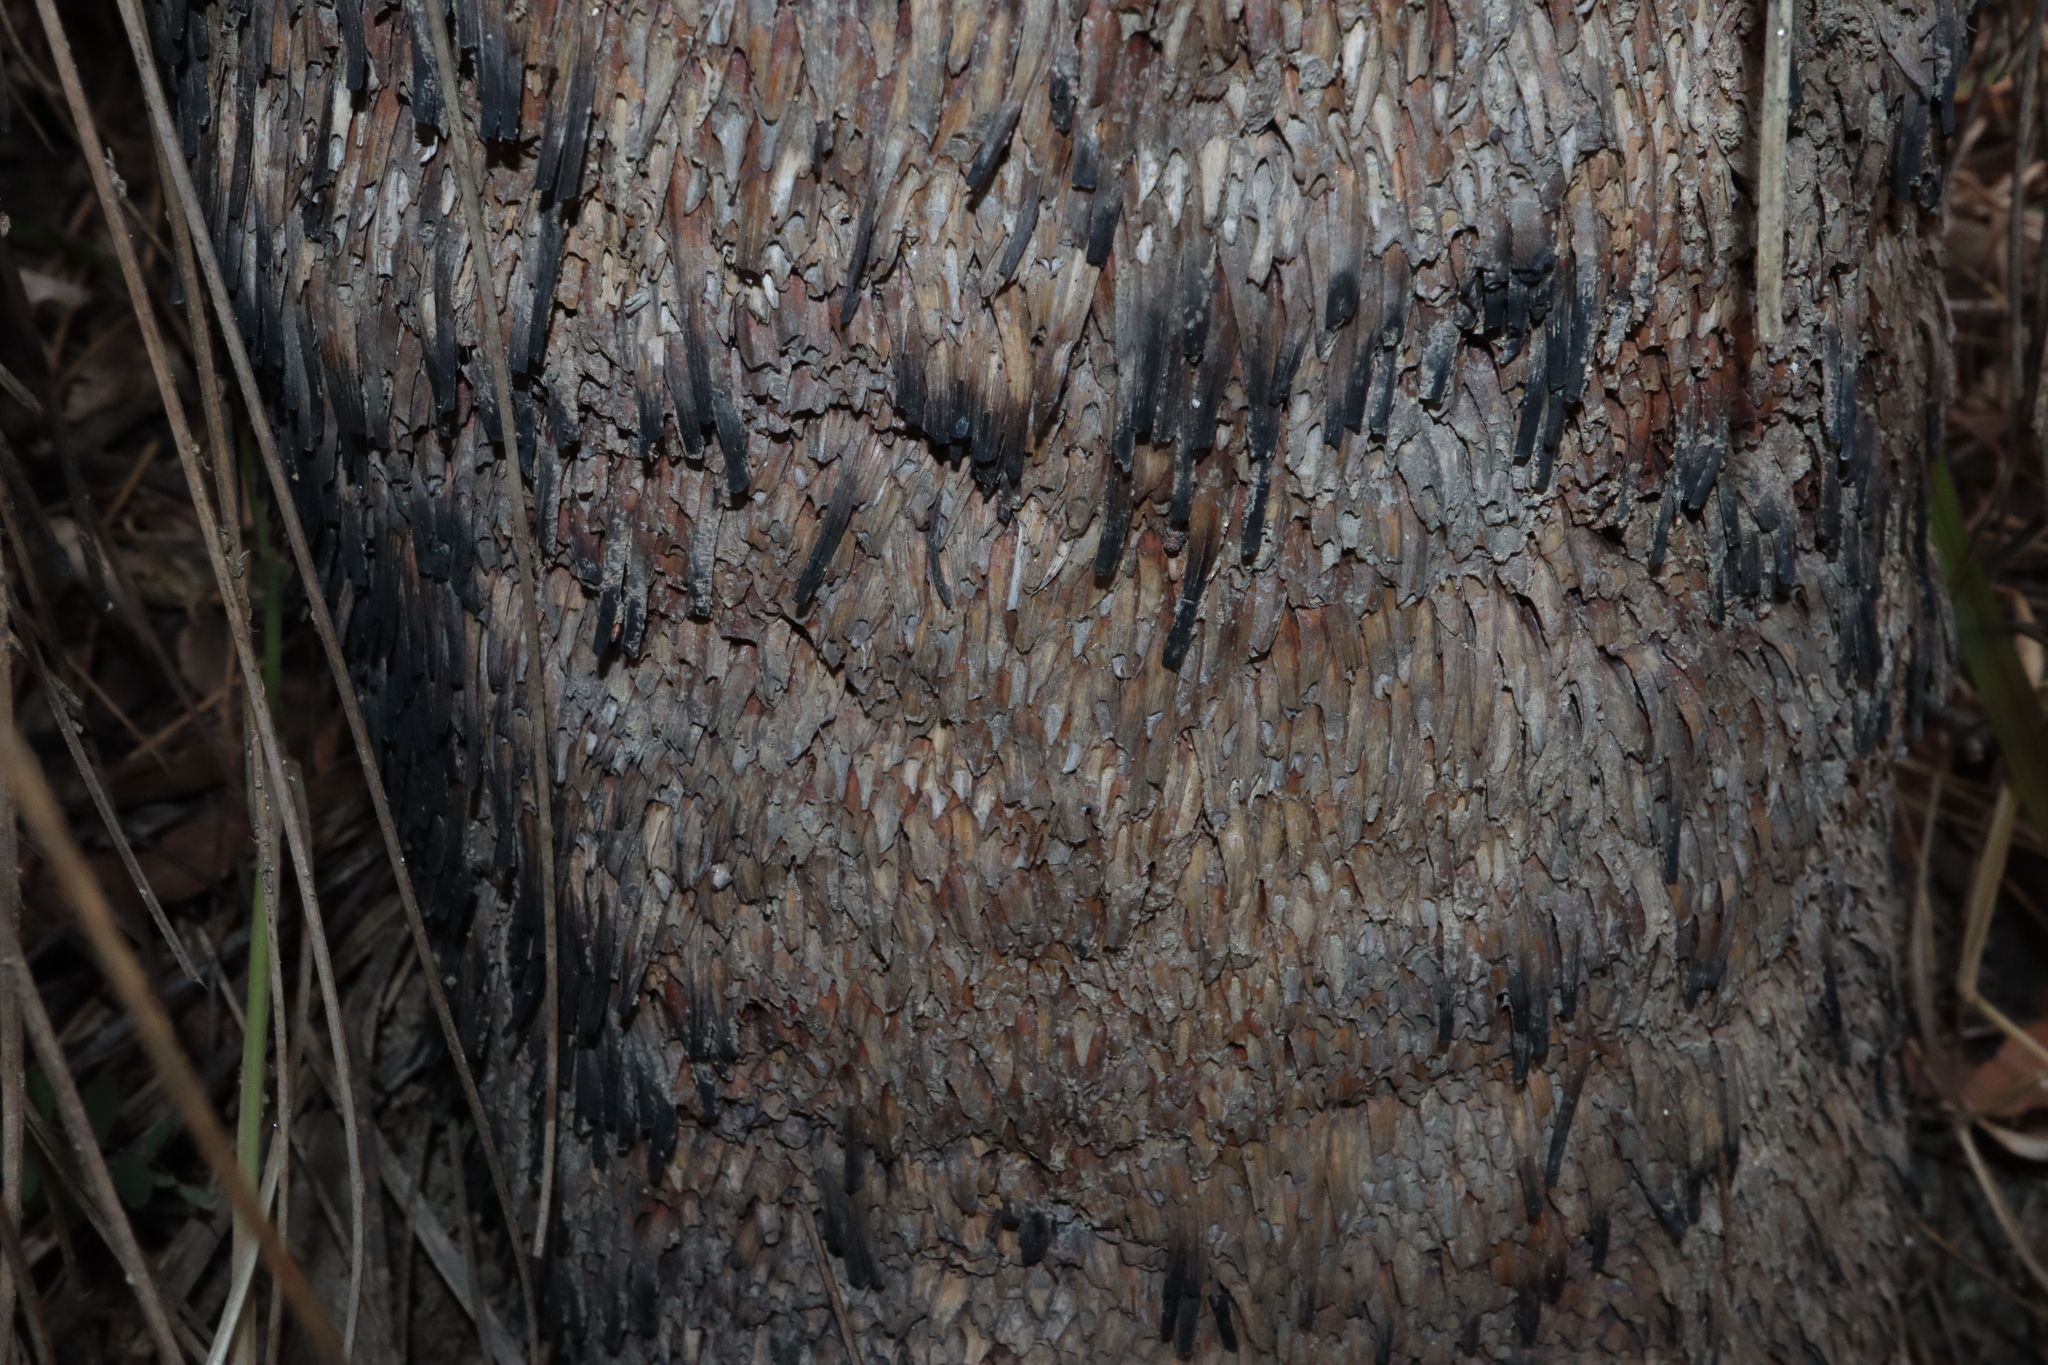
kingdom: Plantae
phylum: Tracheophyta
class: Liliopsida
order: Asparagales
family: Asphodelaceae
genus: Xanthorrhoea
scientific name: Xanthorrhoea johnsonii
